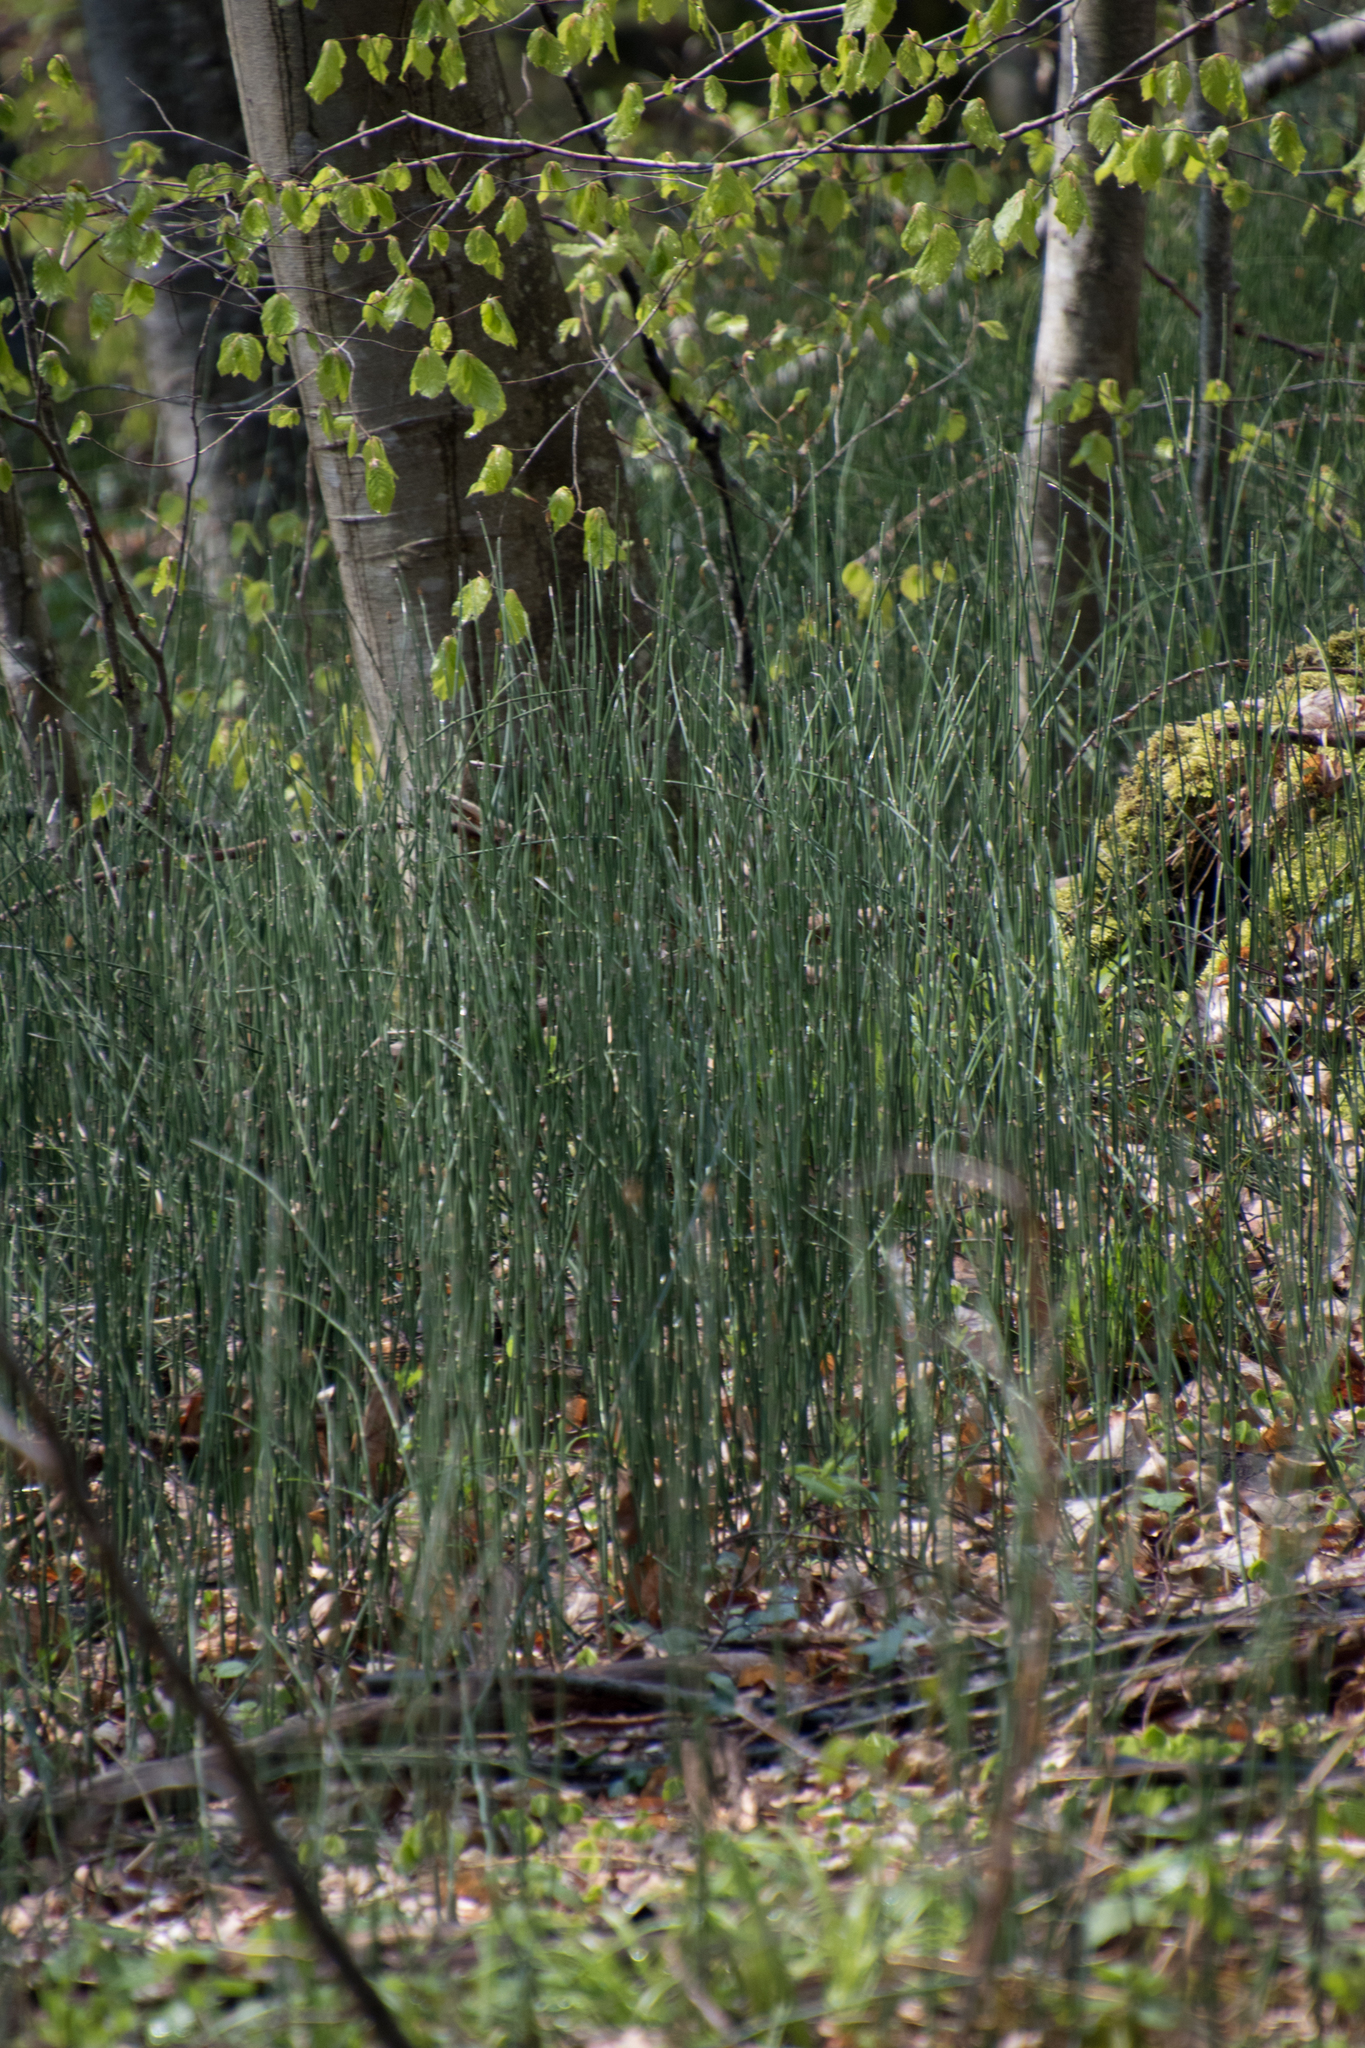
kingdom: Plantae
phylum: Tracheophyta
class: Polypodiopsida
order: Equisetales
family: Equisetaceae
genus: Equisetum
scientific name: Equisetum hyemale
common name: Rough horsetail
